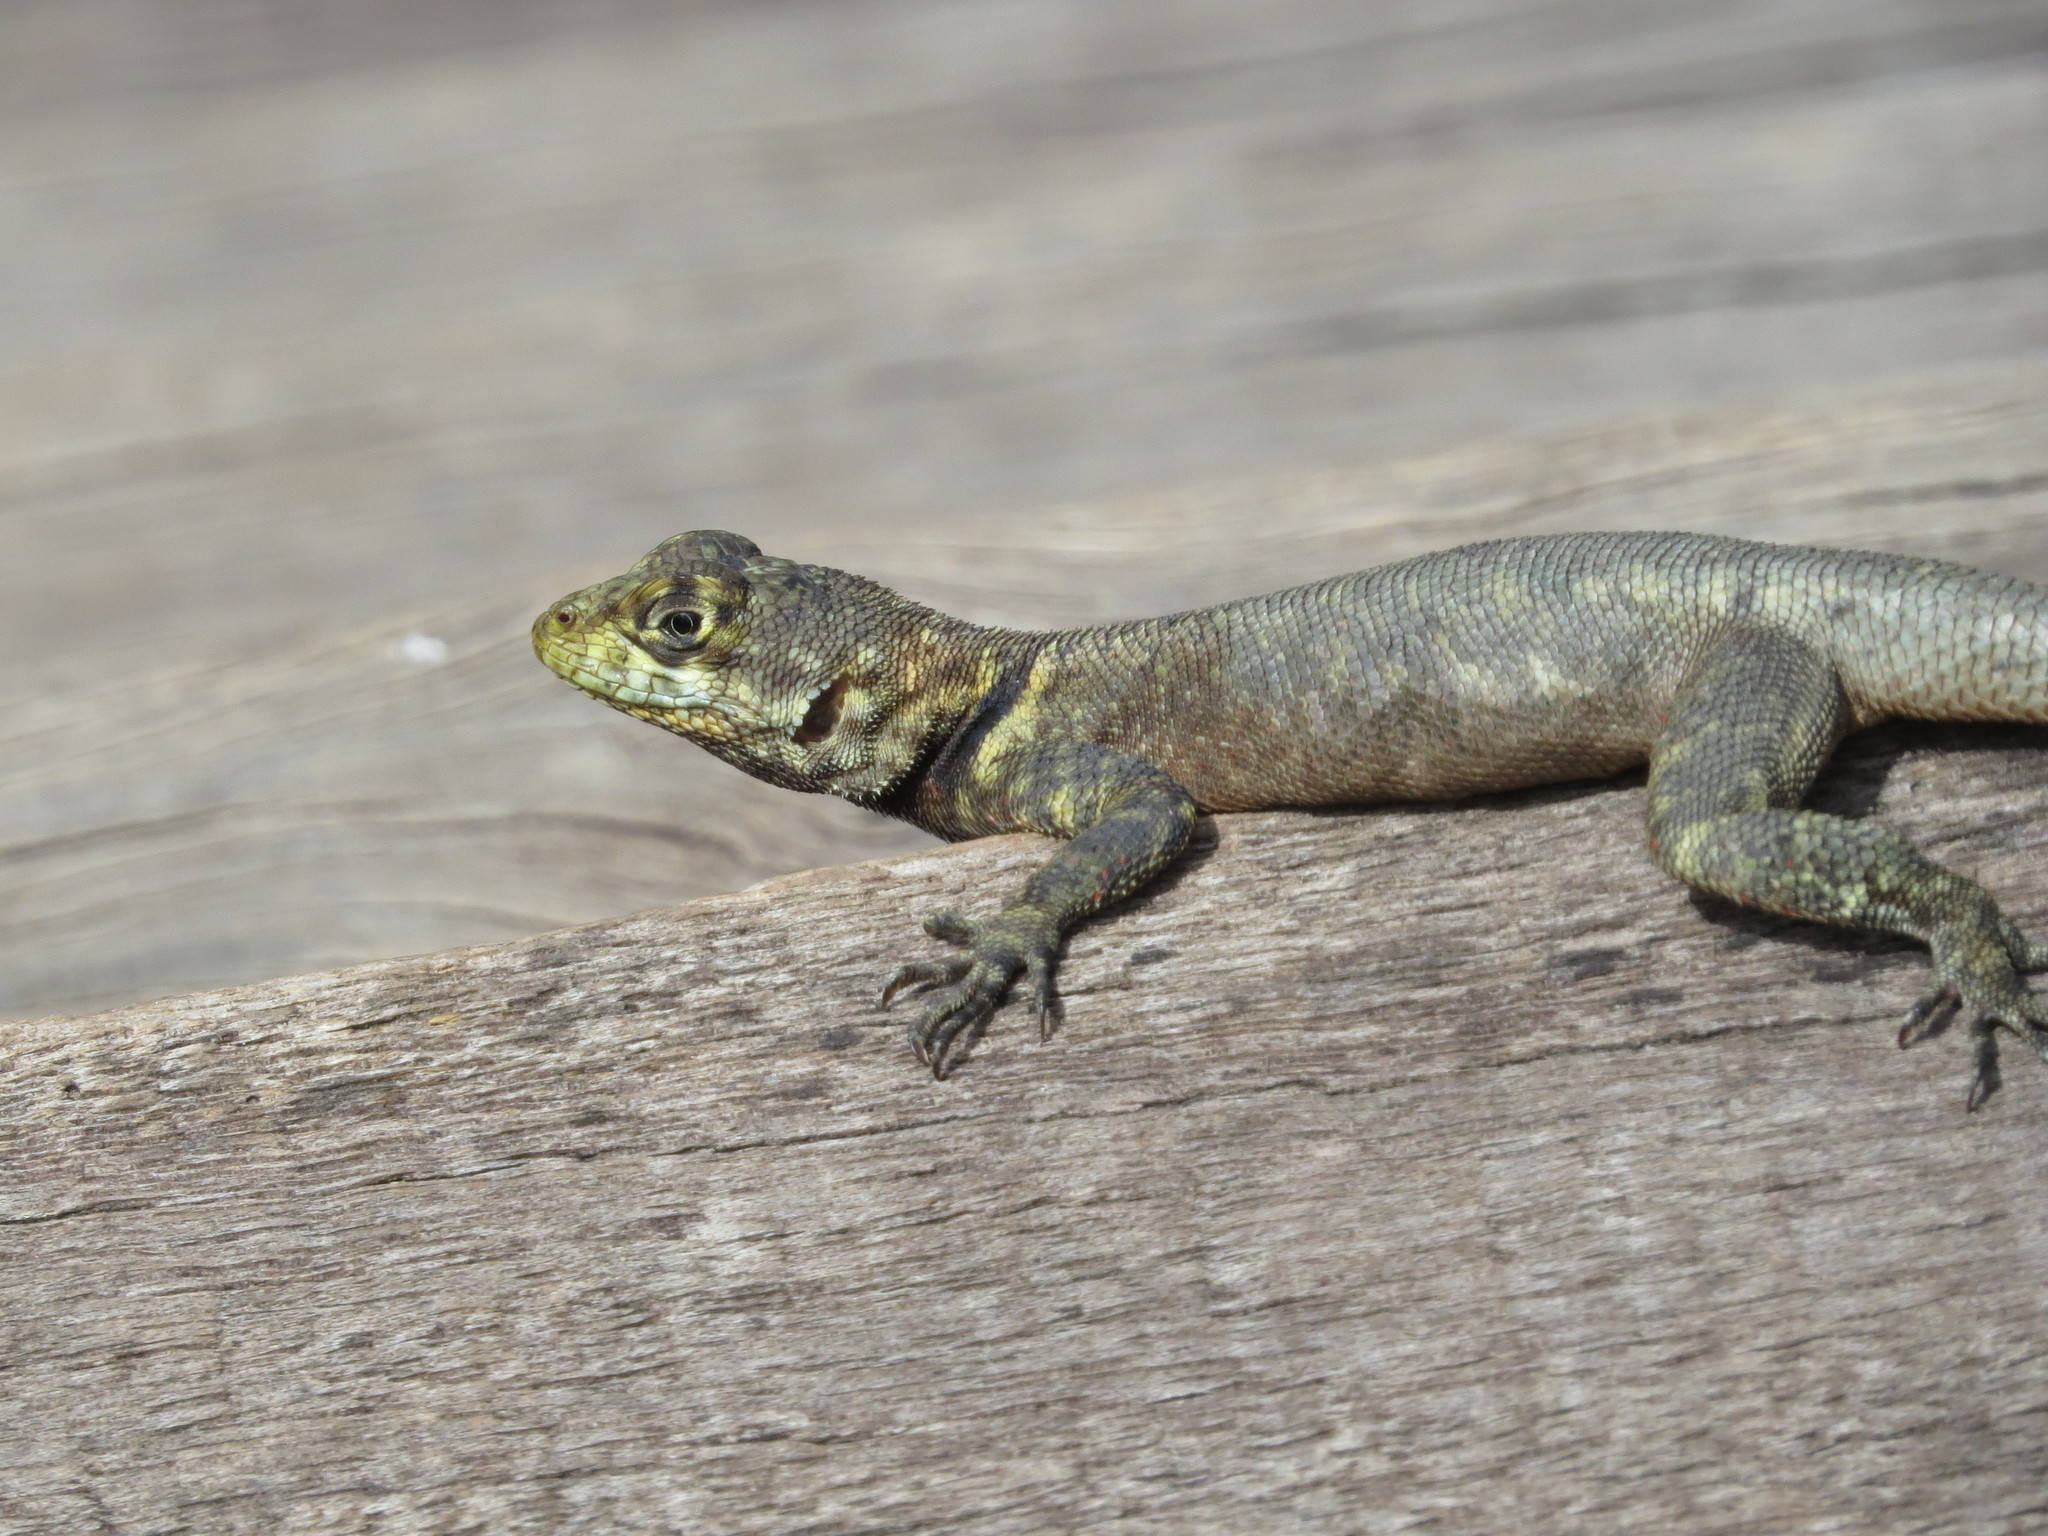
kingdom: Animalia
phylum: Chordata
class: Squamata
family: Tropiduridae
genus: Tropidurus
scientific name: Tropidurus hispidus
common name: Peters' lava lizard
